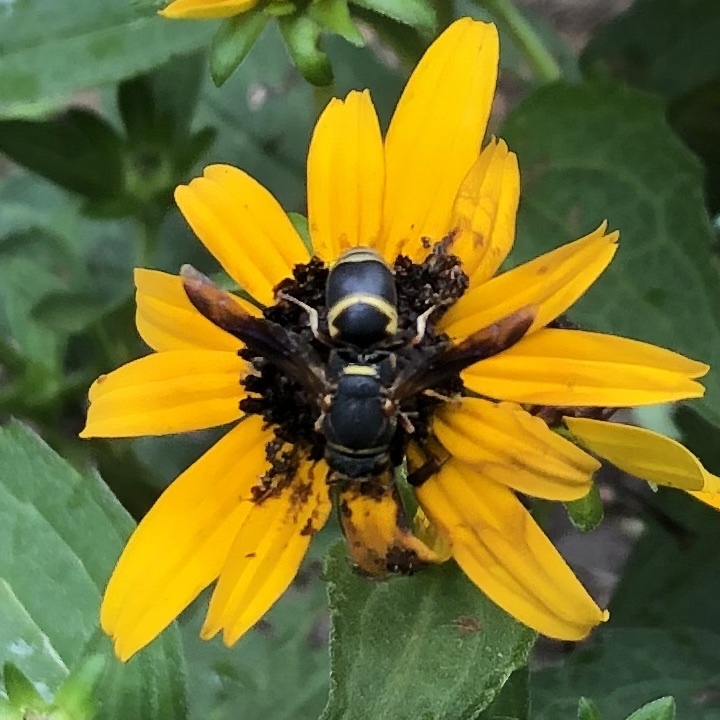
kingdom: Animalia
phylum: Arthropoda
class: Insecta
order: Hymenoptera
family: Eumenidae
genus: Euodynerus
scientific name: Euodynerus hidalgo
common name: Wasp
